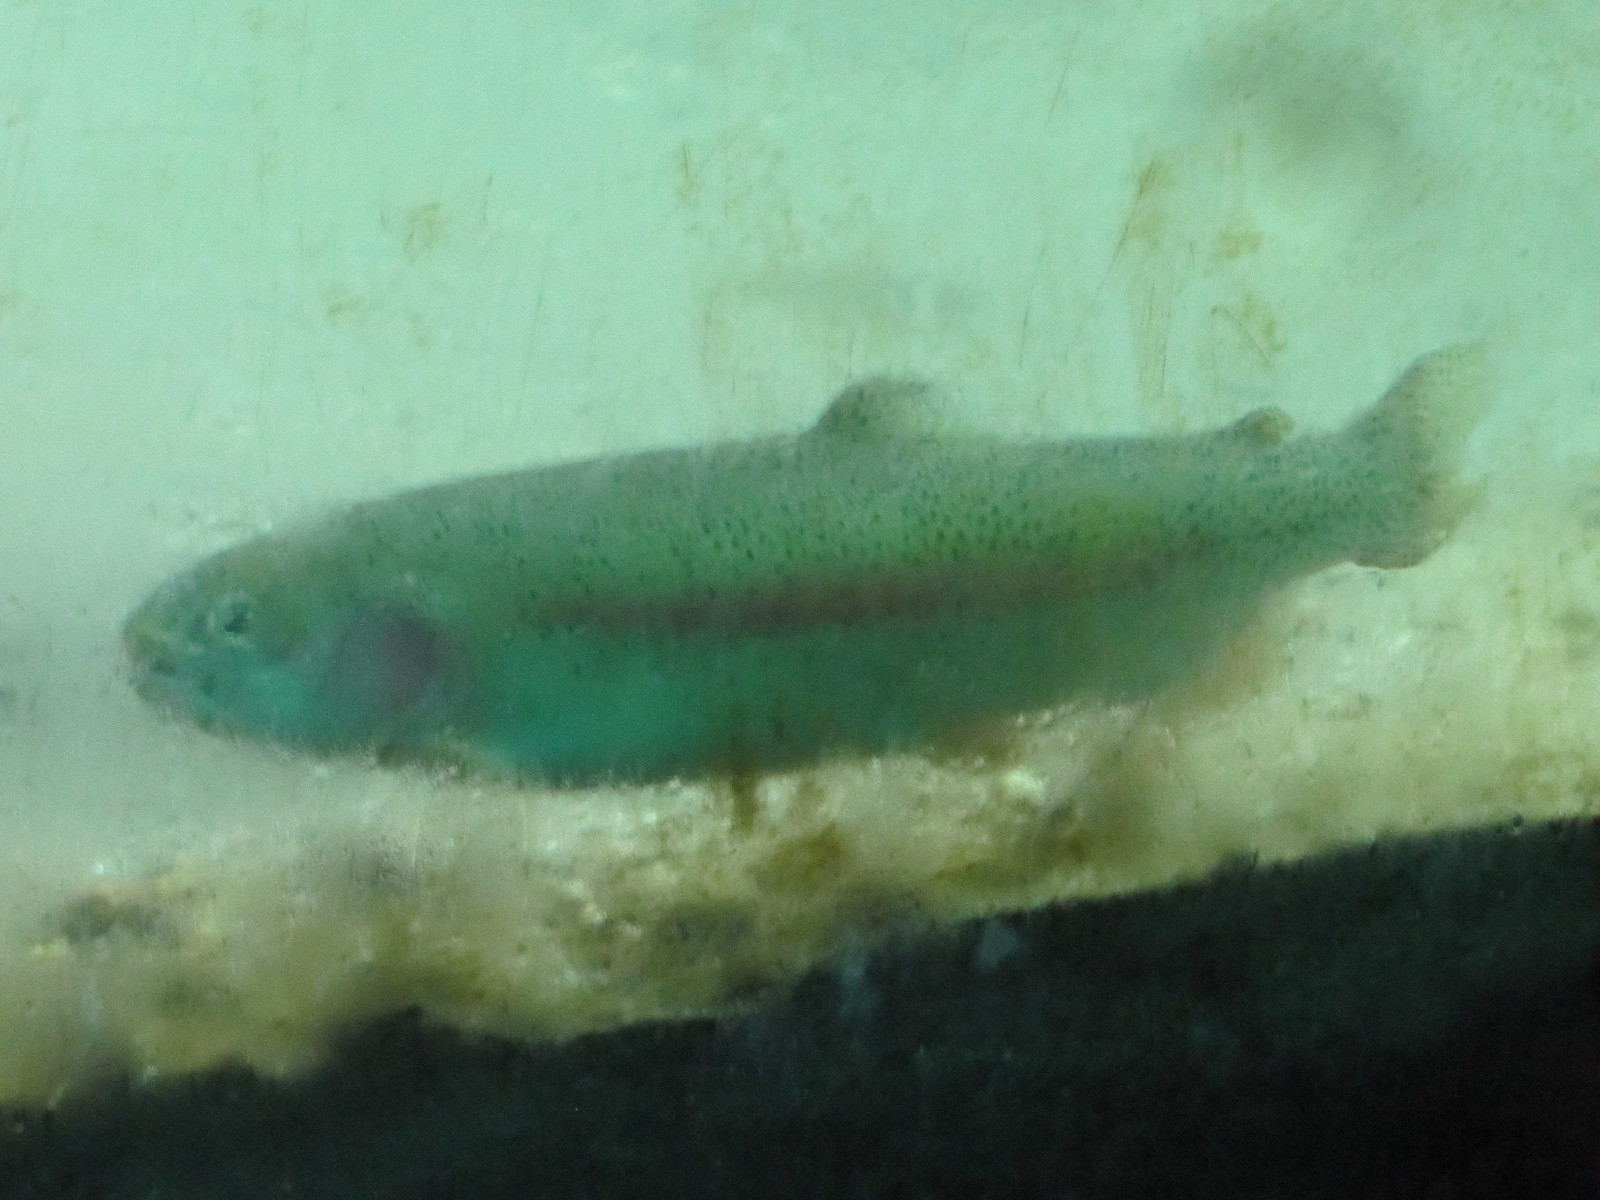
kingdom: Animalia
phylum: Chordata
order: Salmoniformes
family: Salmonidae
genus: Oncorhynchus
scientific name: Oncorhynchus mykiss
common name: Rainbow trout
